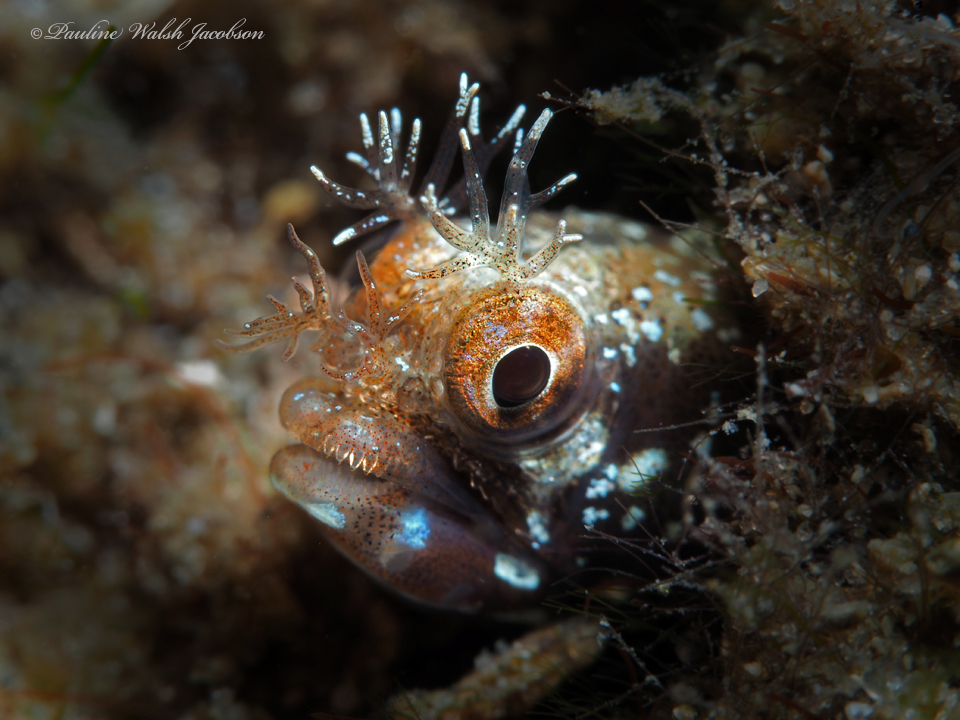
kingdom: Animalia
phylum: Chordata
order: Perciformes
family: Chaenopsidae
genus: Acanthemblemaria
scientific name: Acanthemblemaria aspera
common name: Roughhead blenny
